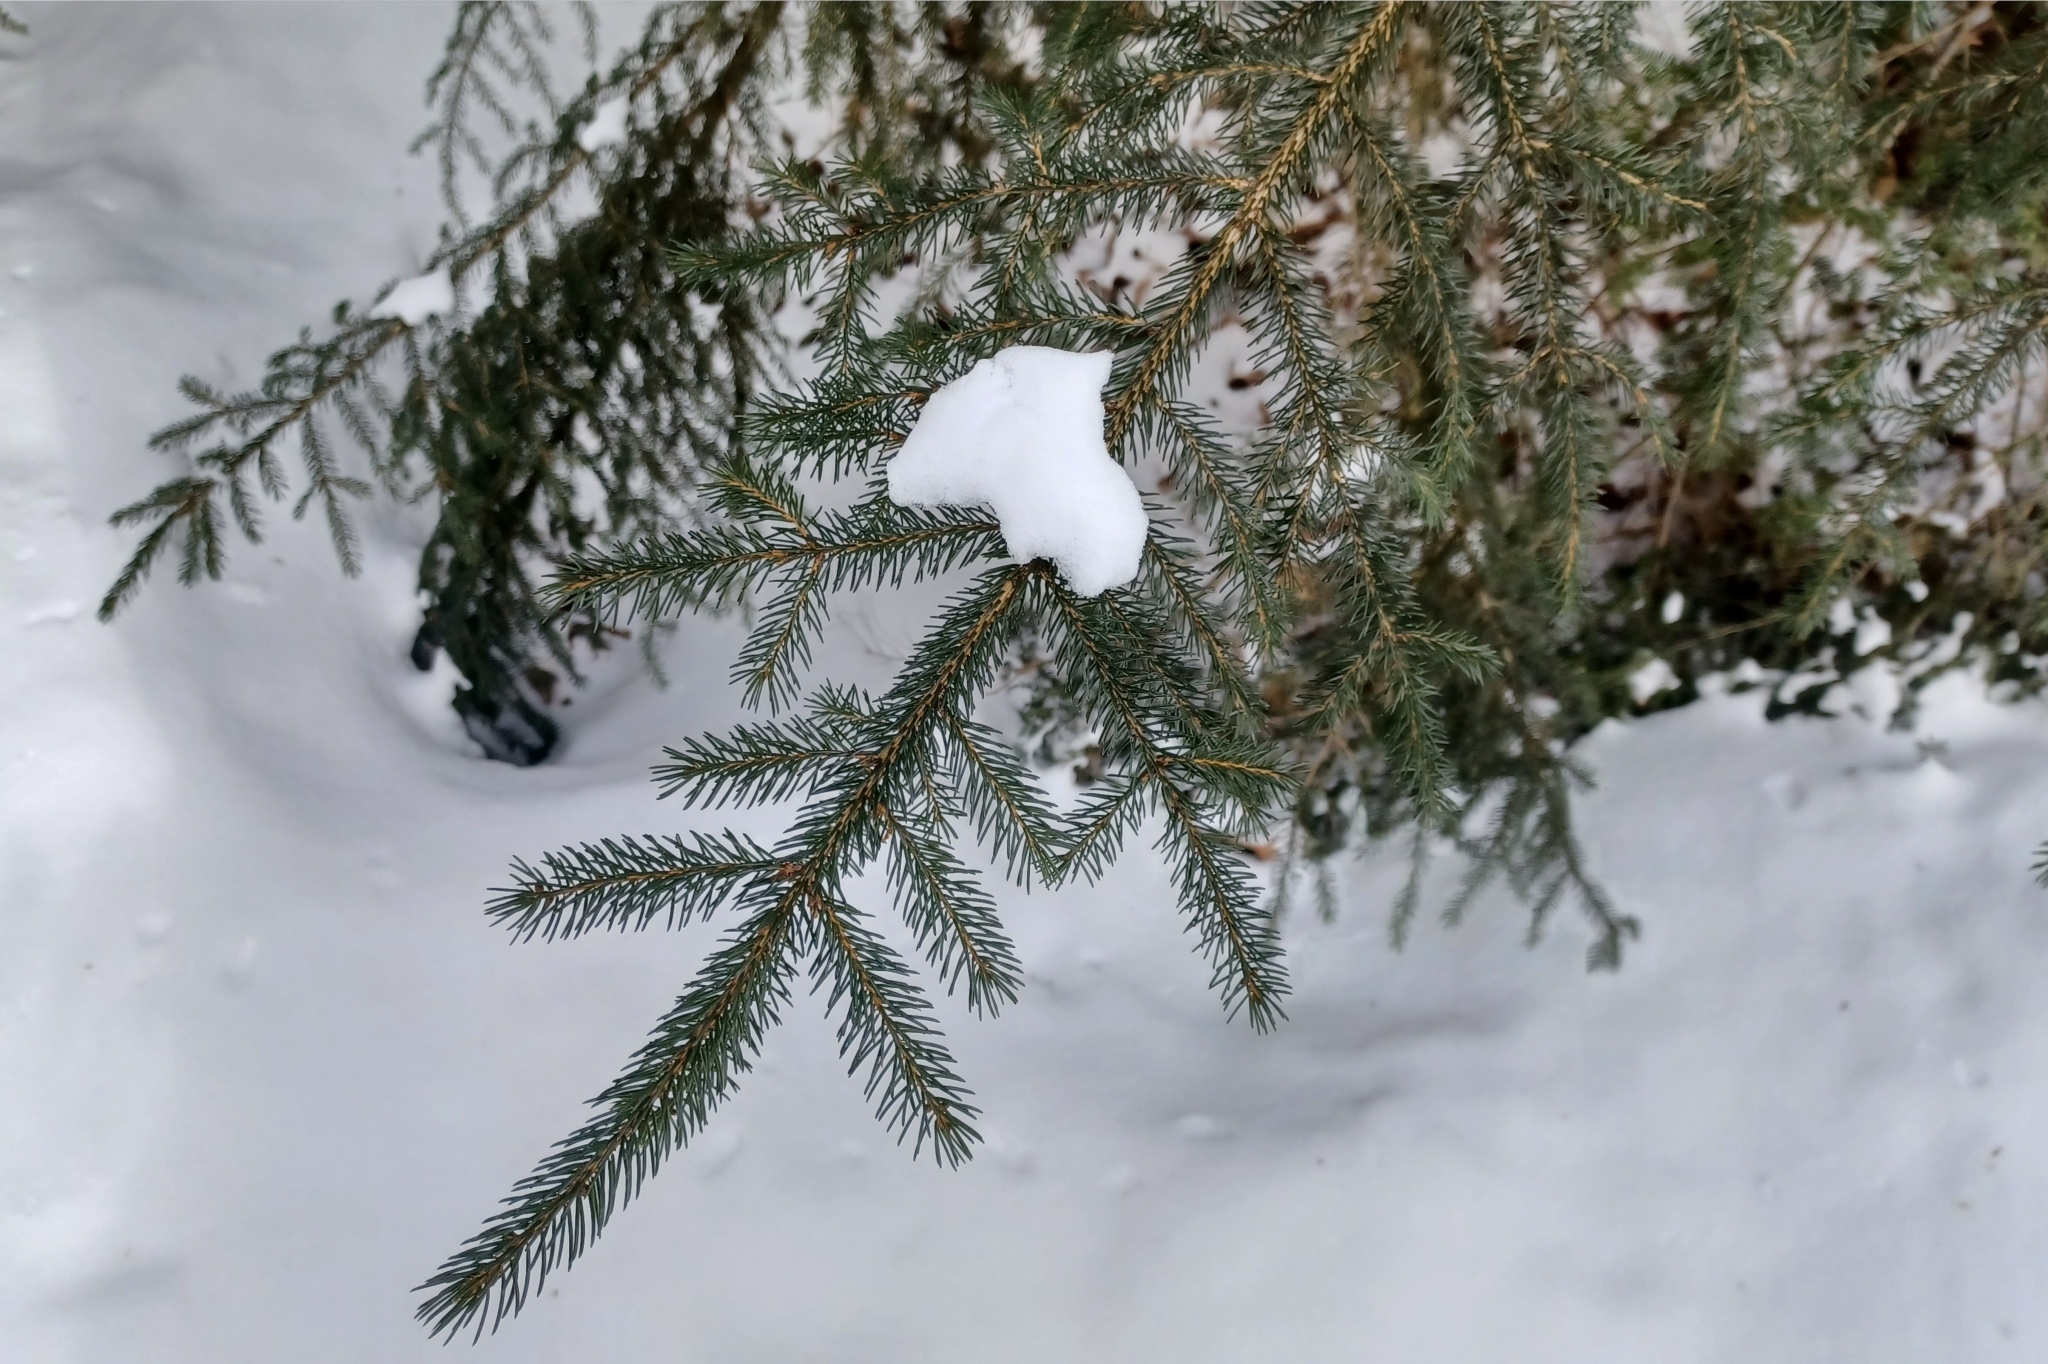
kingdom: Plantae
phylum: Tracheophyta
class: Pinopsida
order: Pinales
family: Pinaceae
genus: Picea
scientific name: Picea rubens
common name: Red spruce
